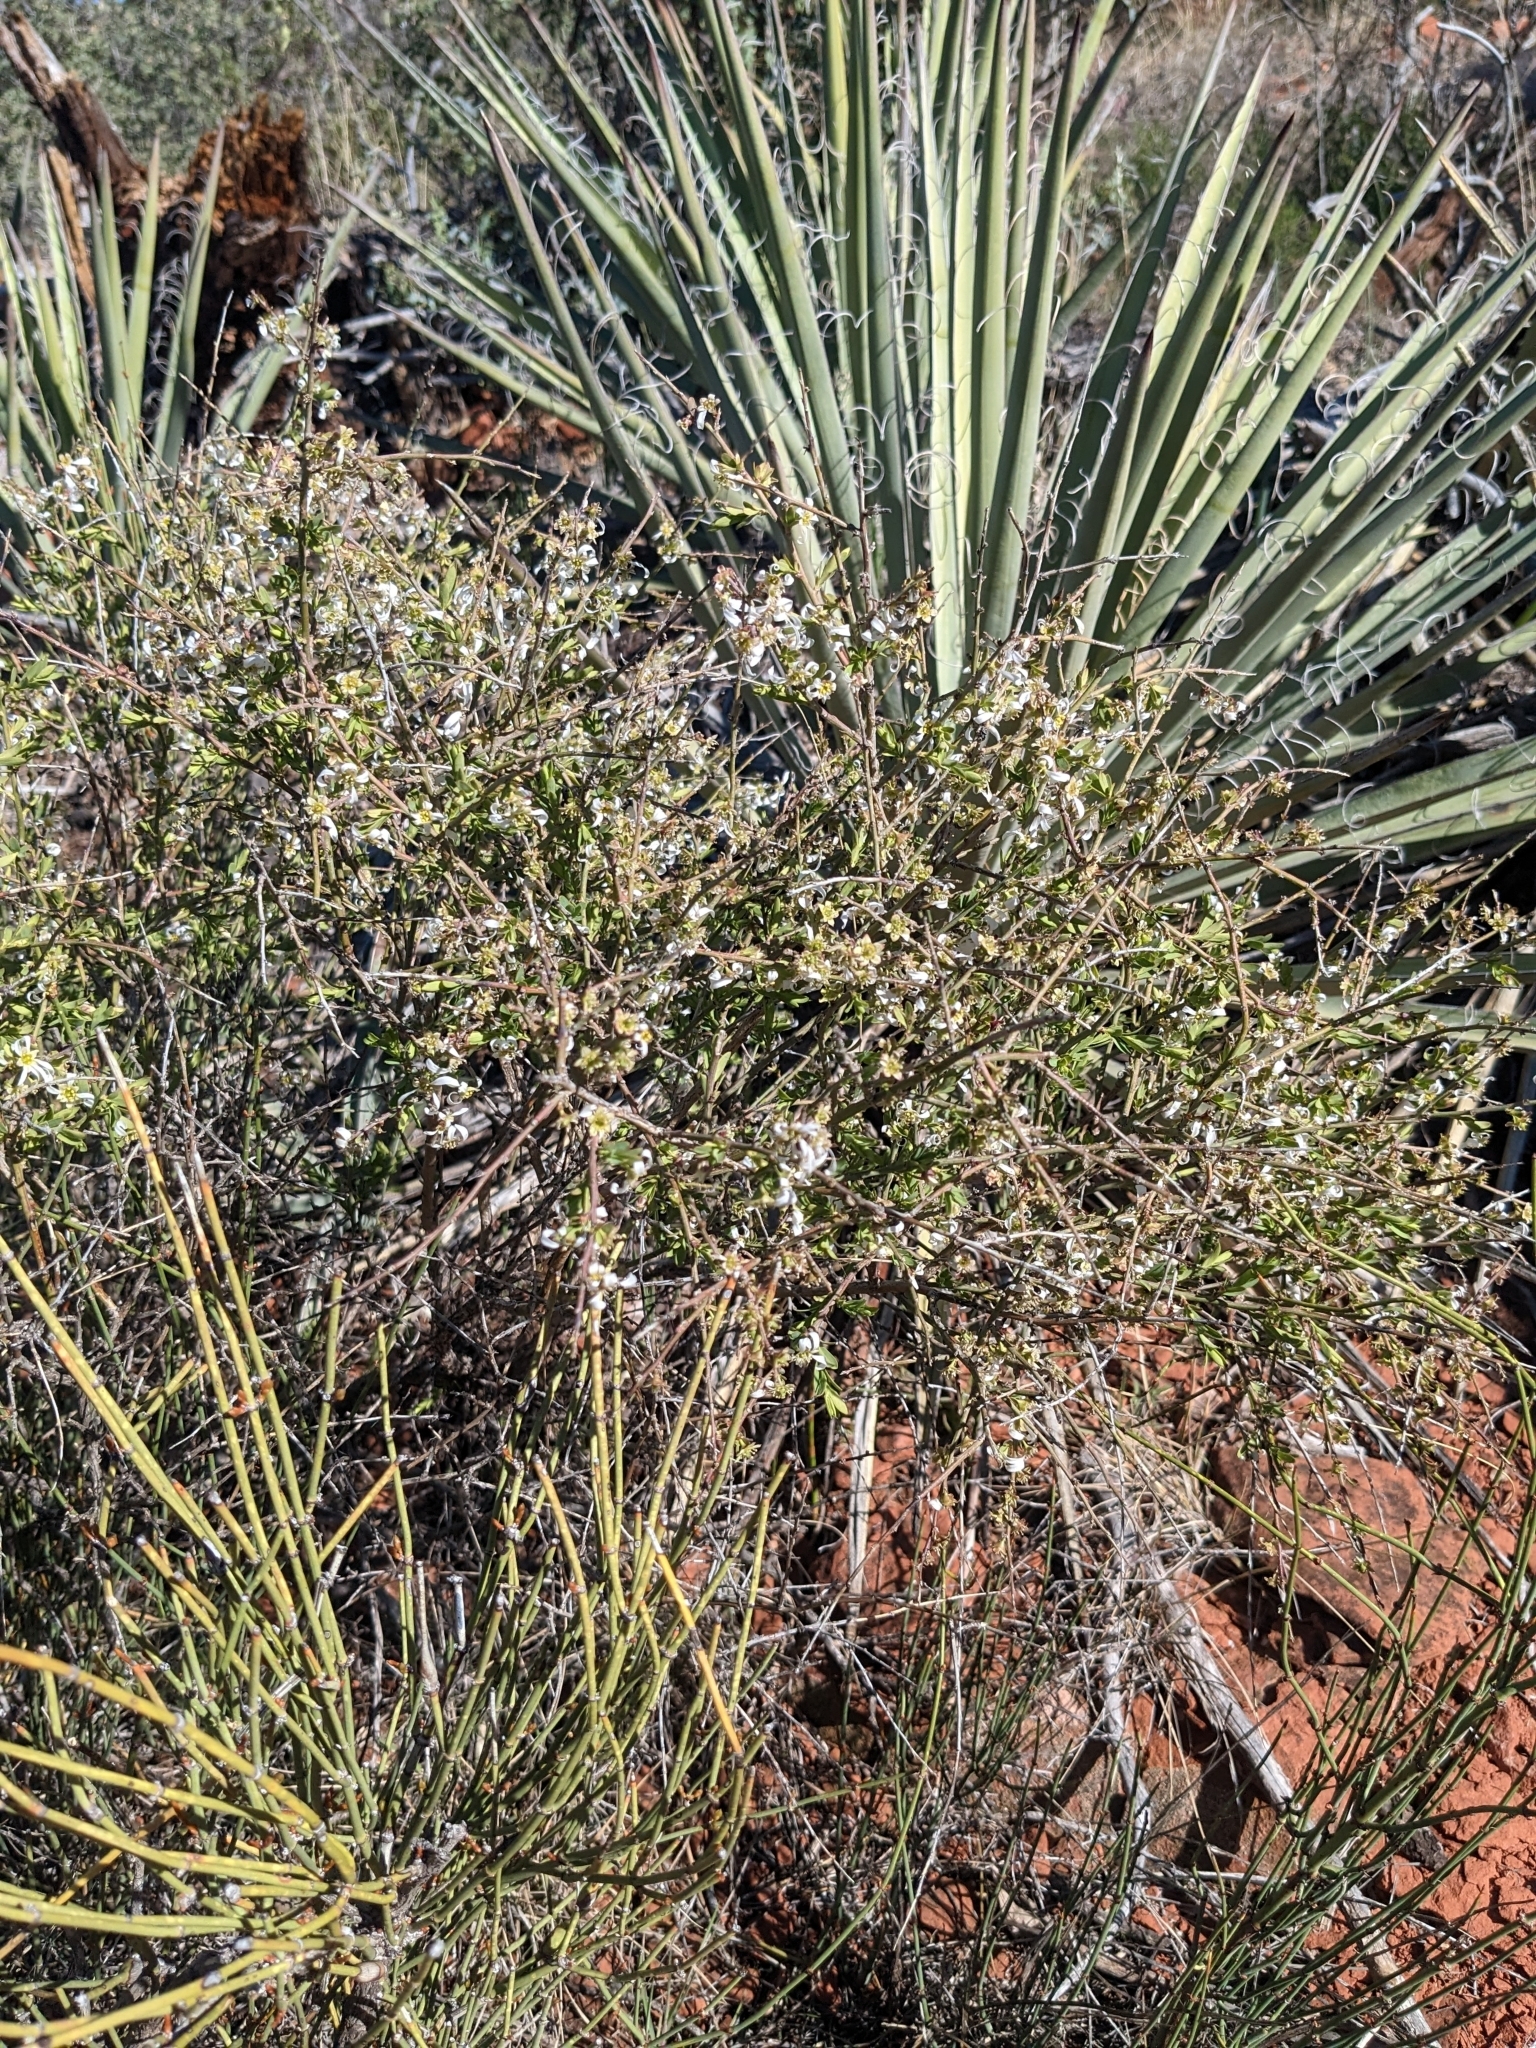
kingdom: Plantae
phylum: Tracheophyta
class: Magnoliopsida
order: Crossosomatales
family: Crossosomataceae
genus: Glossopetalon
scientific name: Glossopetalon spinescens
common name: Spring greasebush
